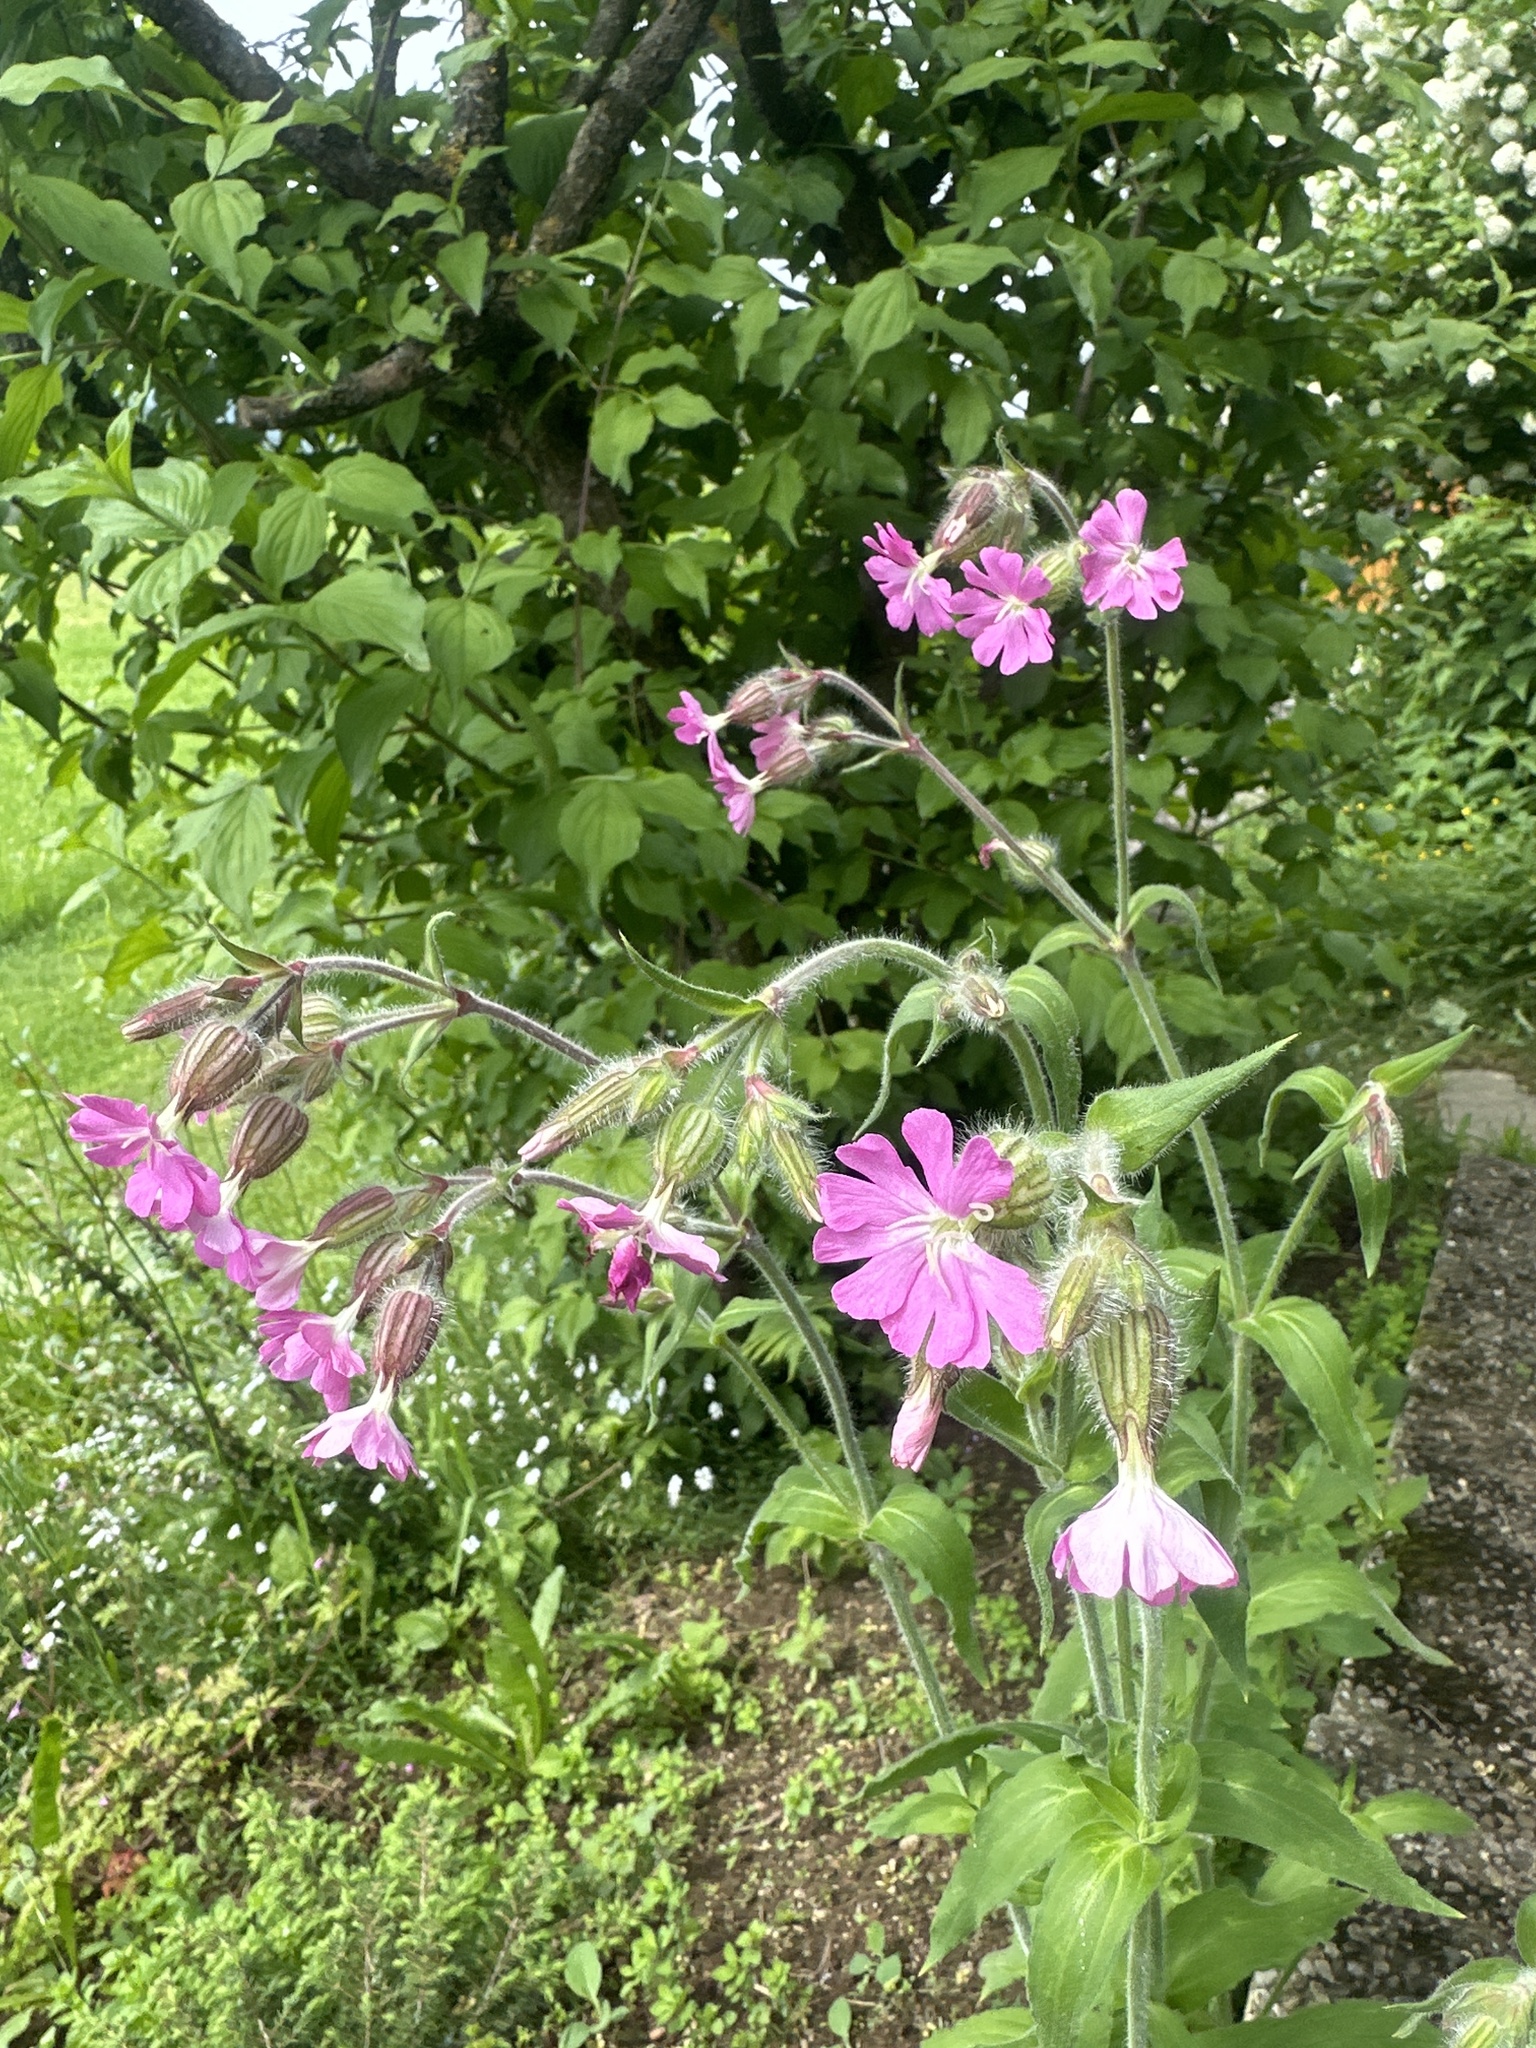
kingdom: Plantae
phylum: Tracheophyta
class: Magnoliopsida
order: Caryophyllales
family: Caryophyllaceae
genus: Silene
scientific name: Silene dioica
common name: Red campion
